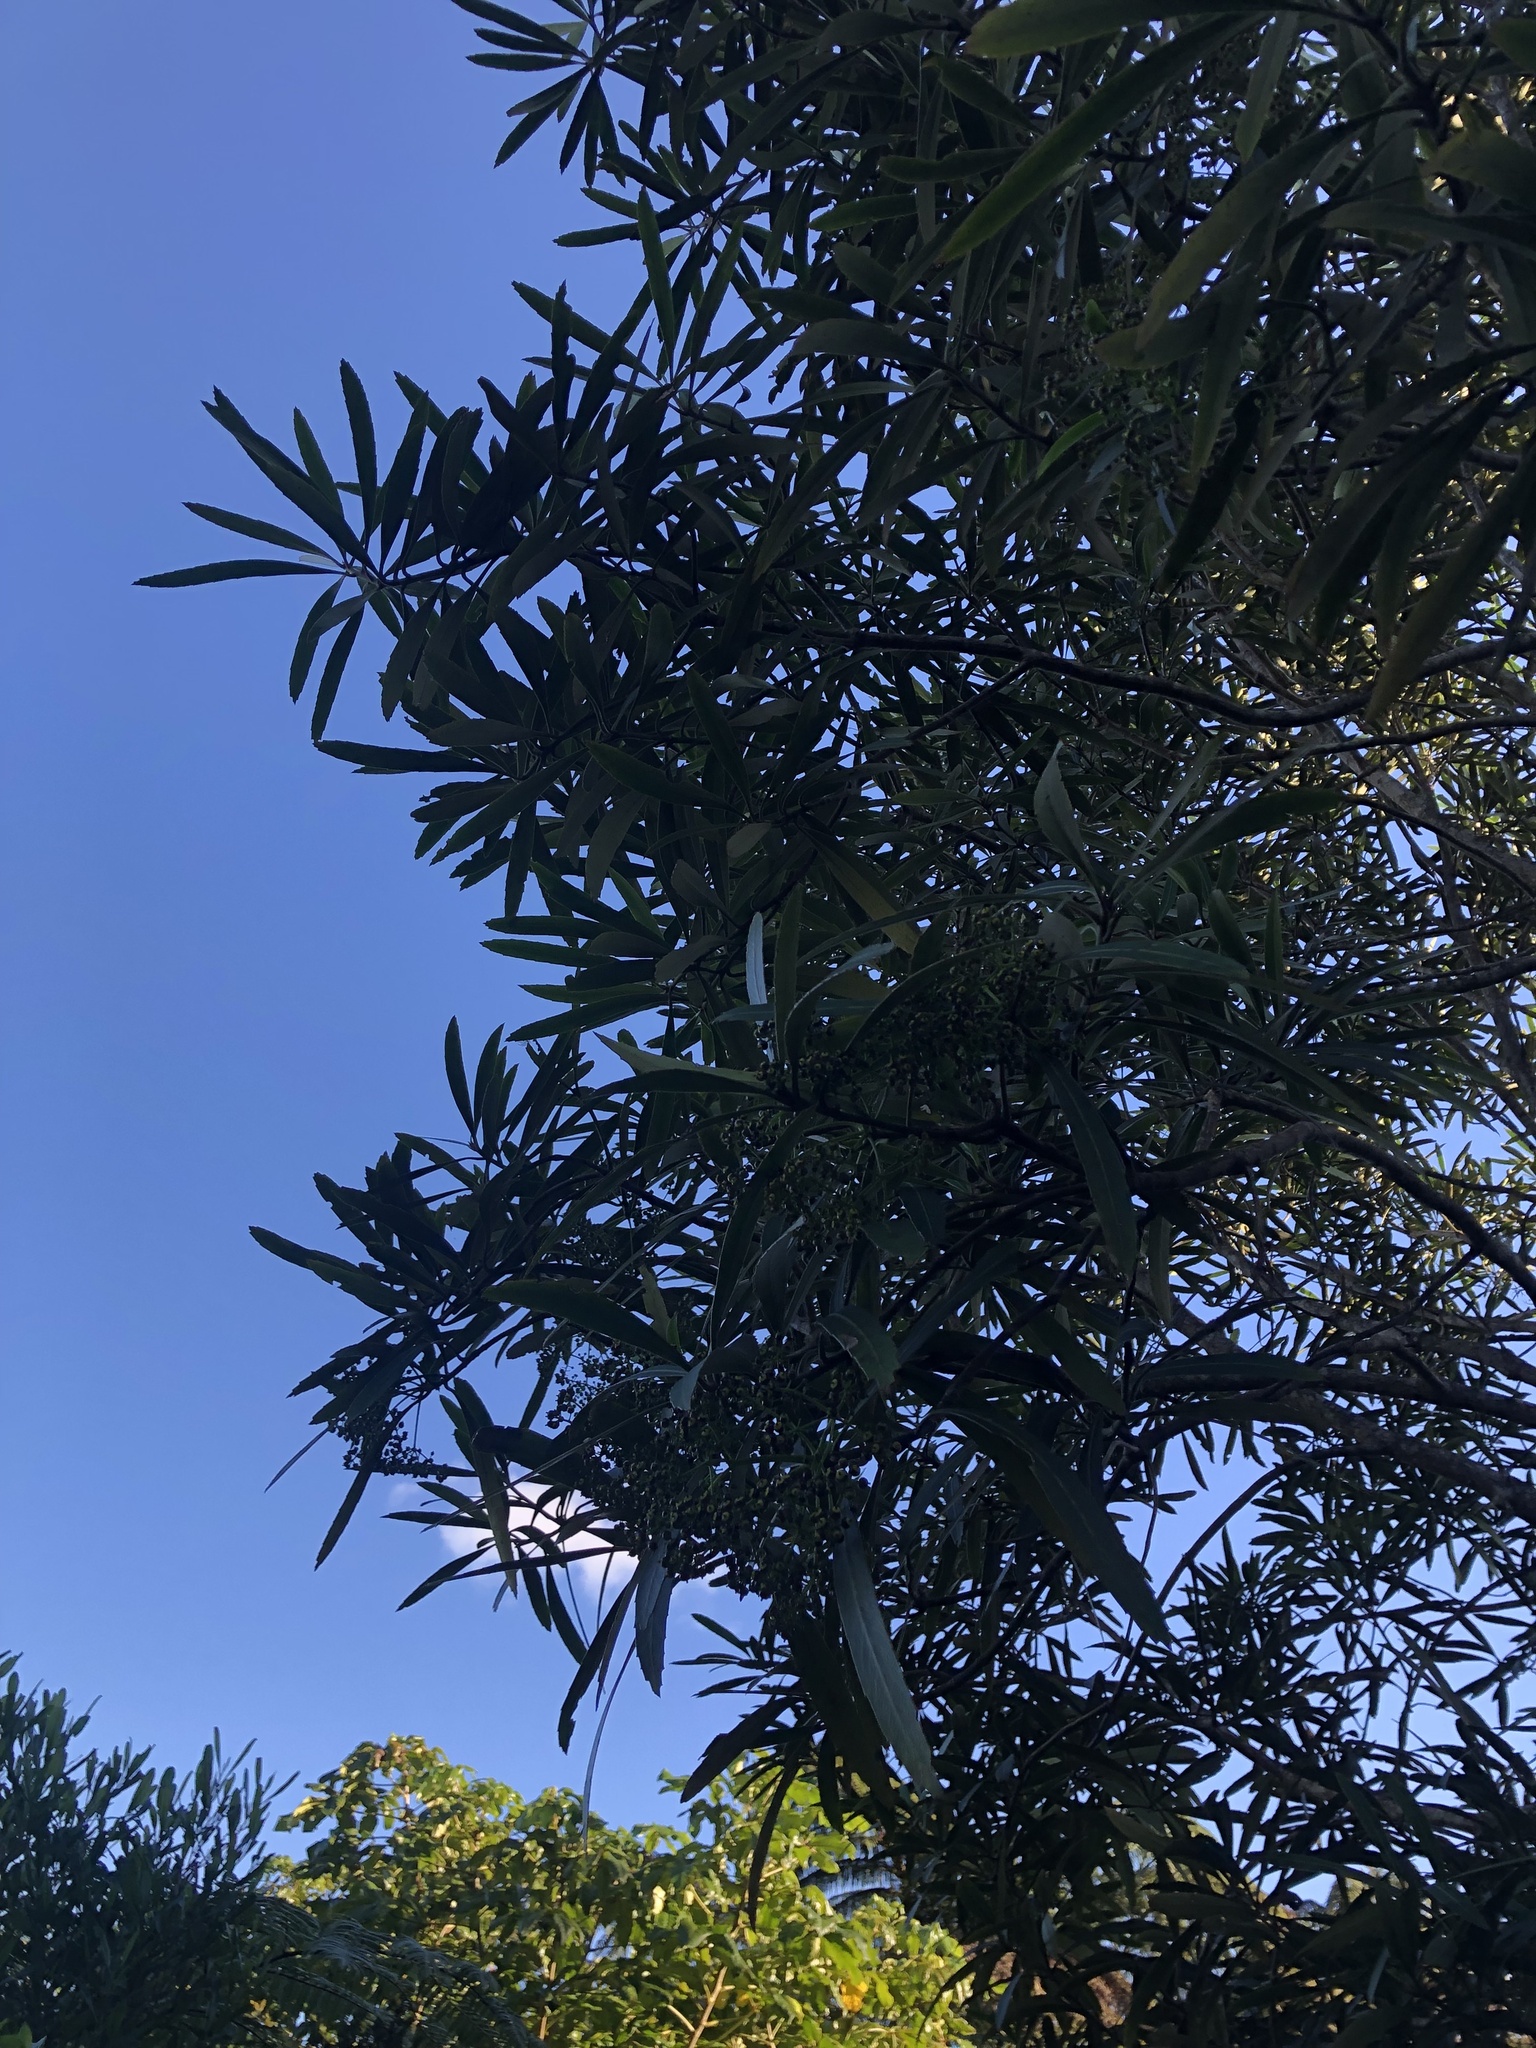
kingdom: Plantae
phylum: Tracheophyta
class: Magnoliopsida
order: Apiales
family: Araliaceae
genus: Pseudopanax
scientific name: Pseudopanax crassifolius
